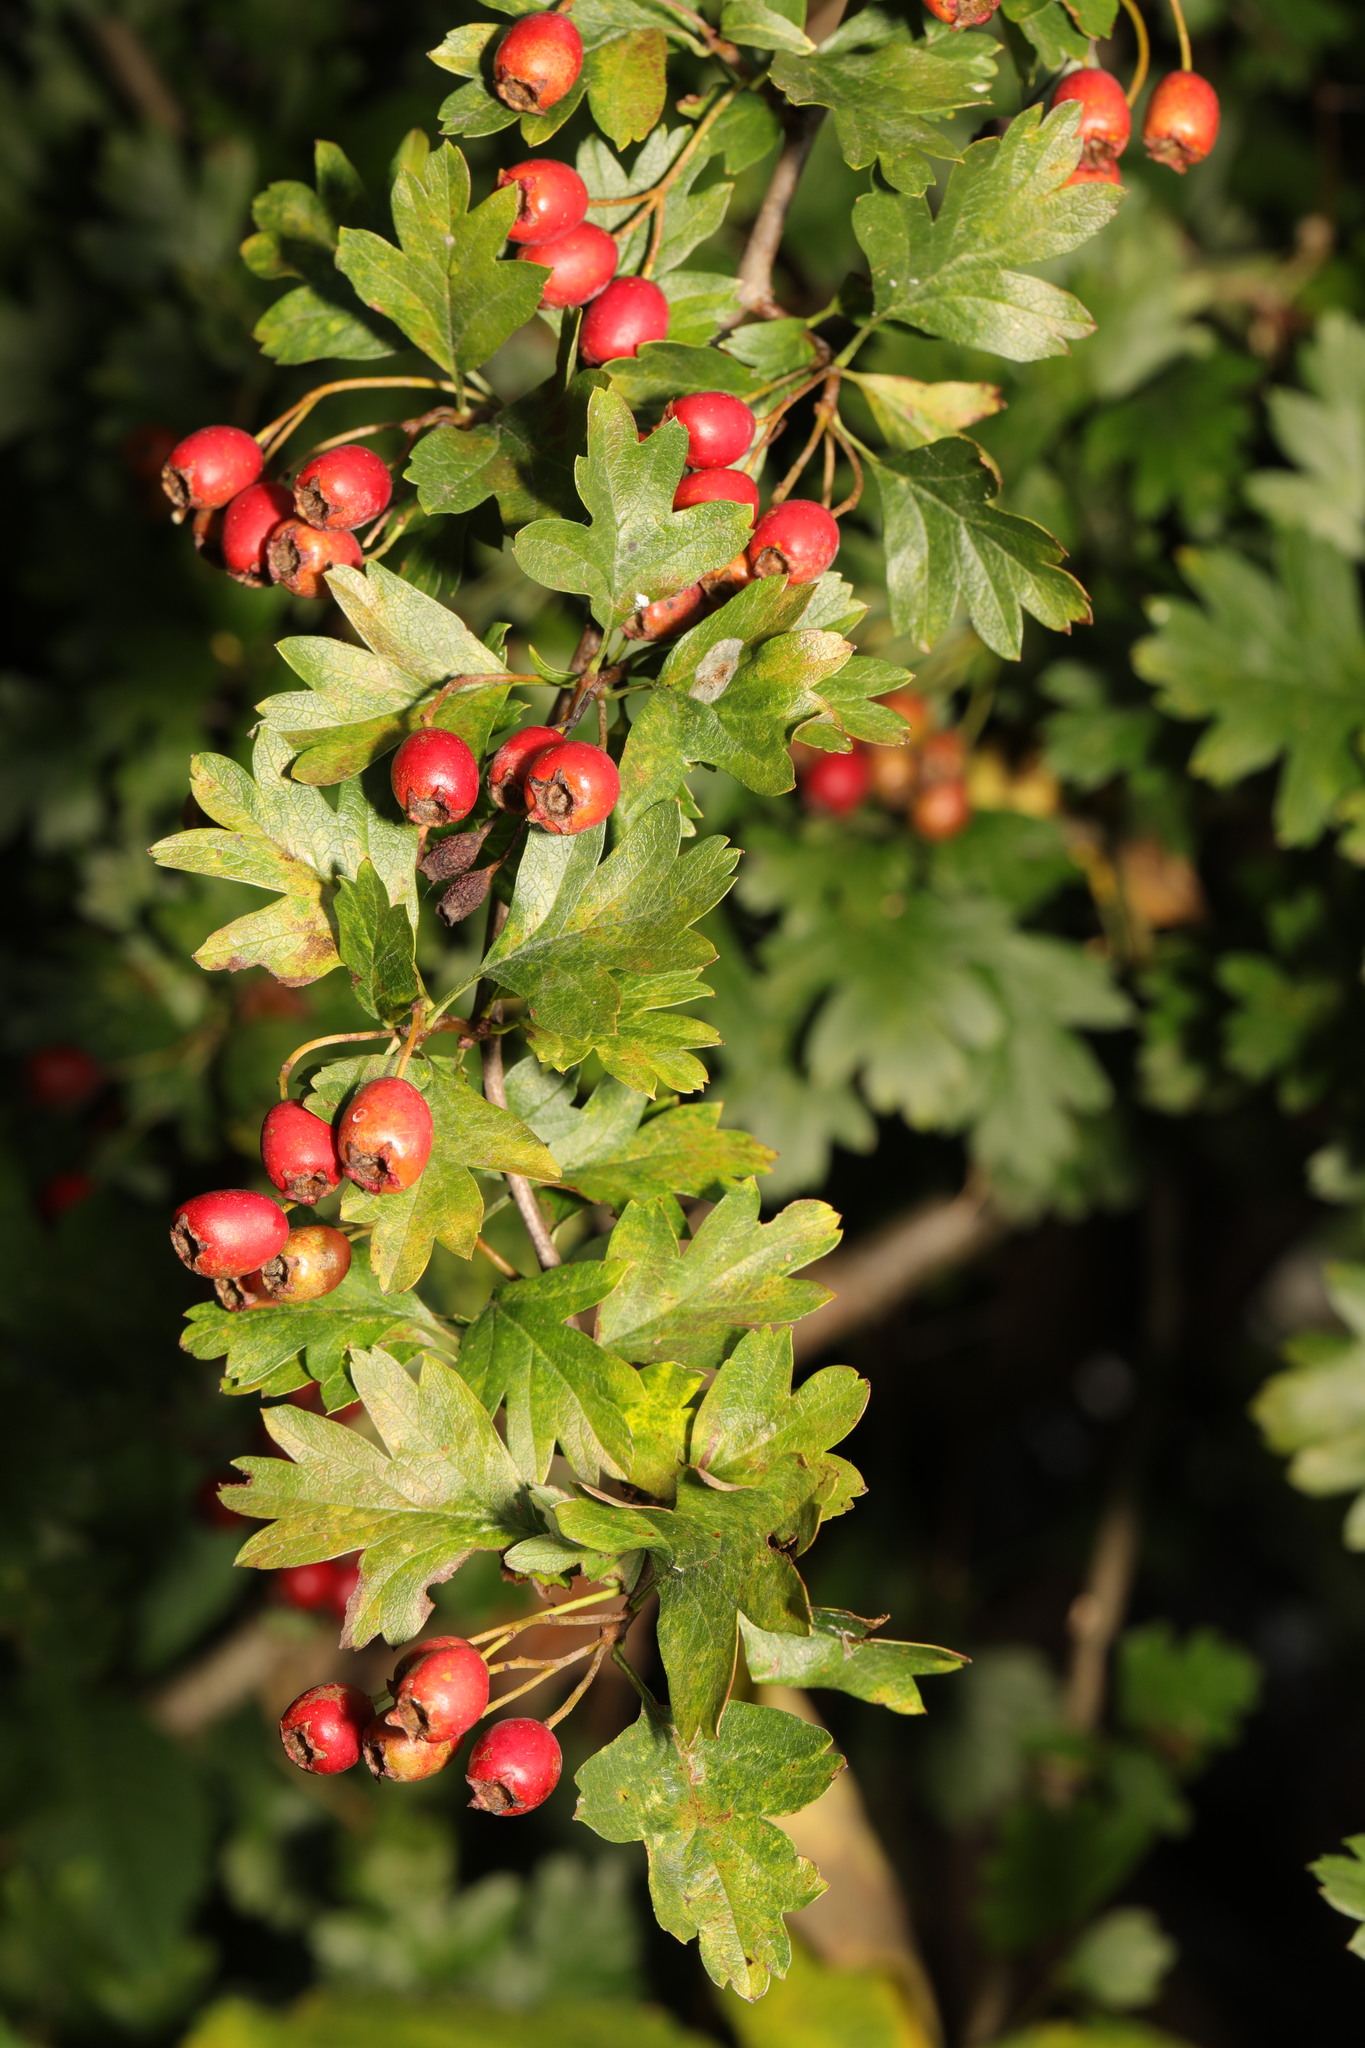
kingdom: Plantae
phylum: Tracheophyta
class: Magnoliopsida
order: Rosales
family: Rosaceae
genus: Crataegus
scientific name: Crataegus monogyna
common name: Hawthorn
